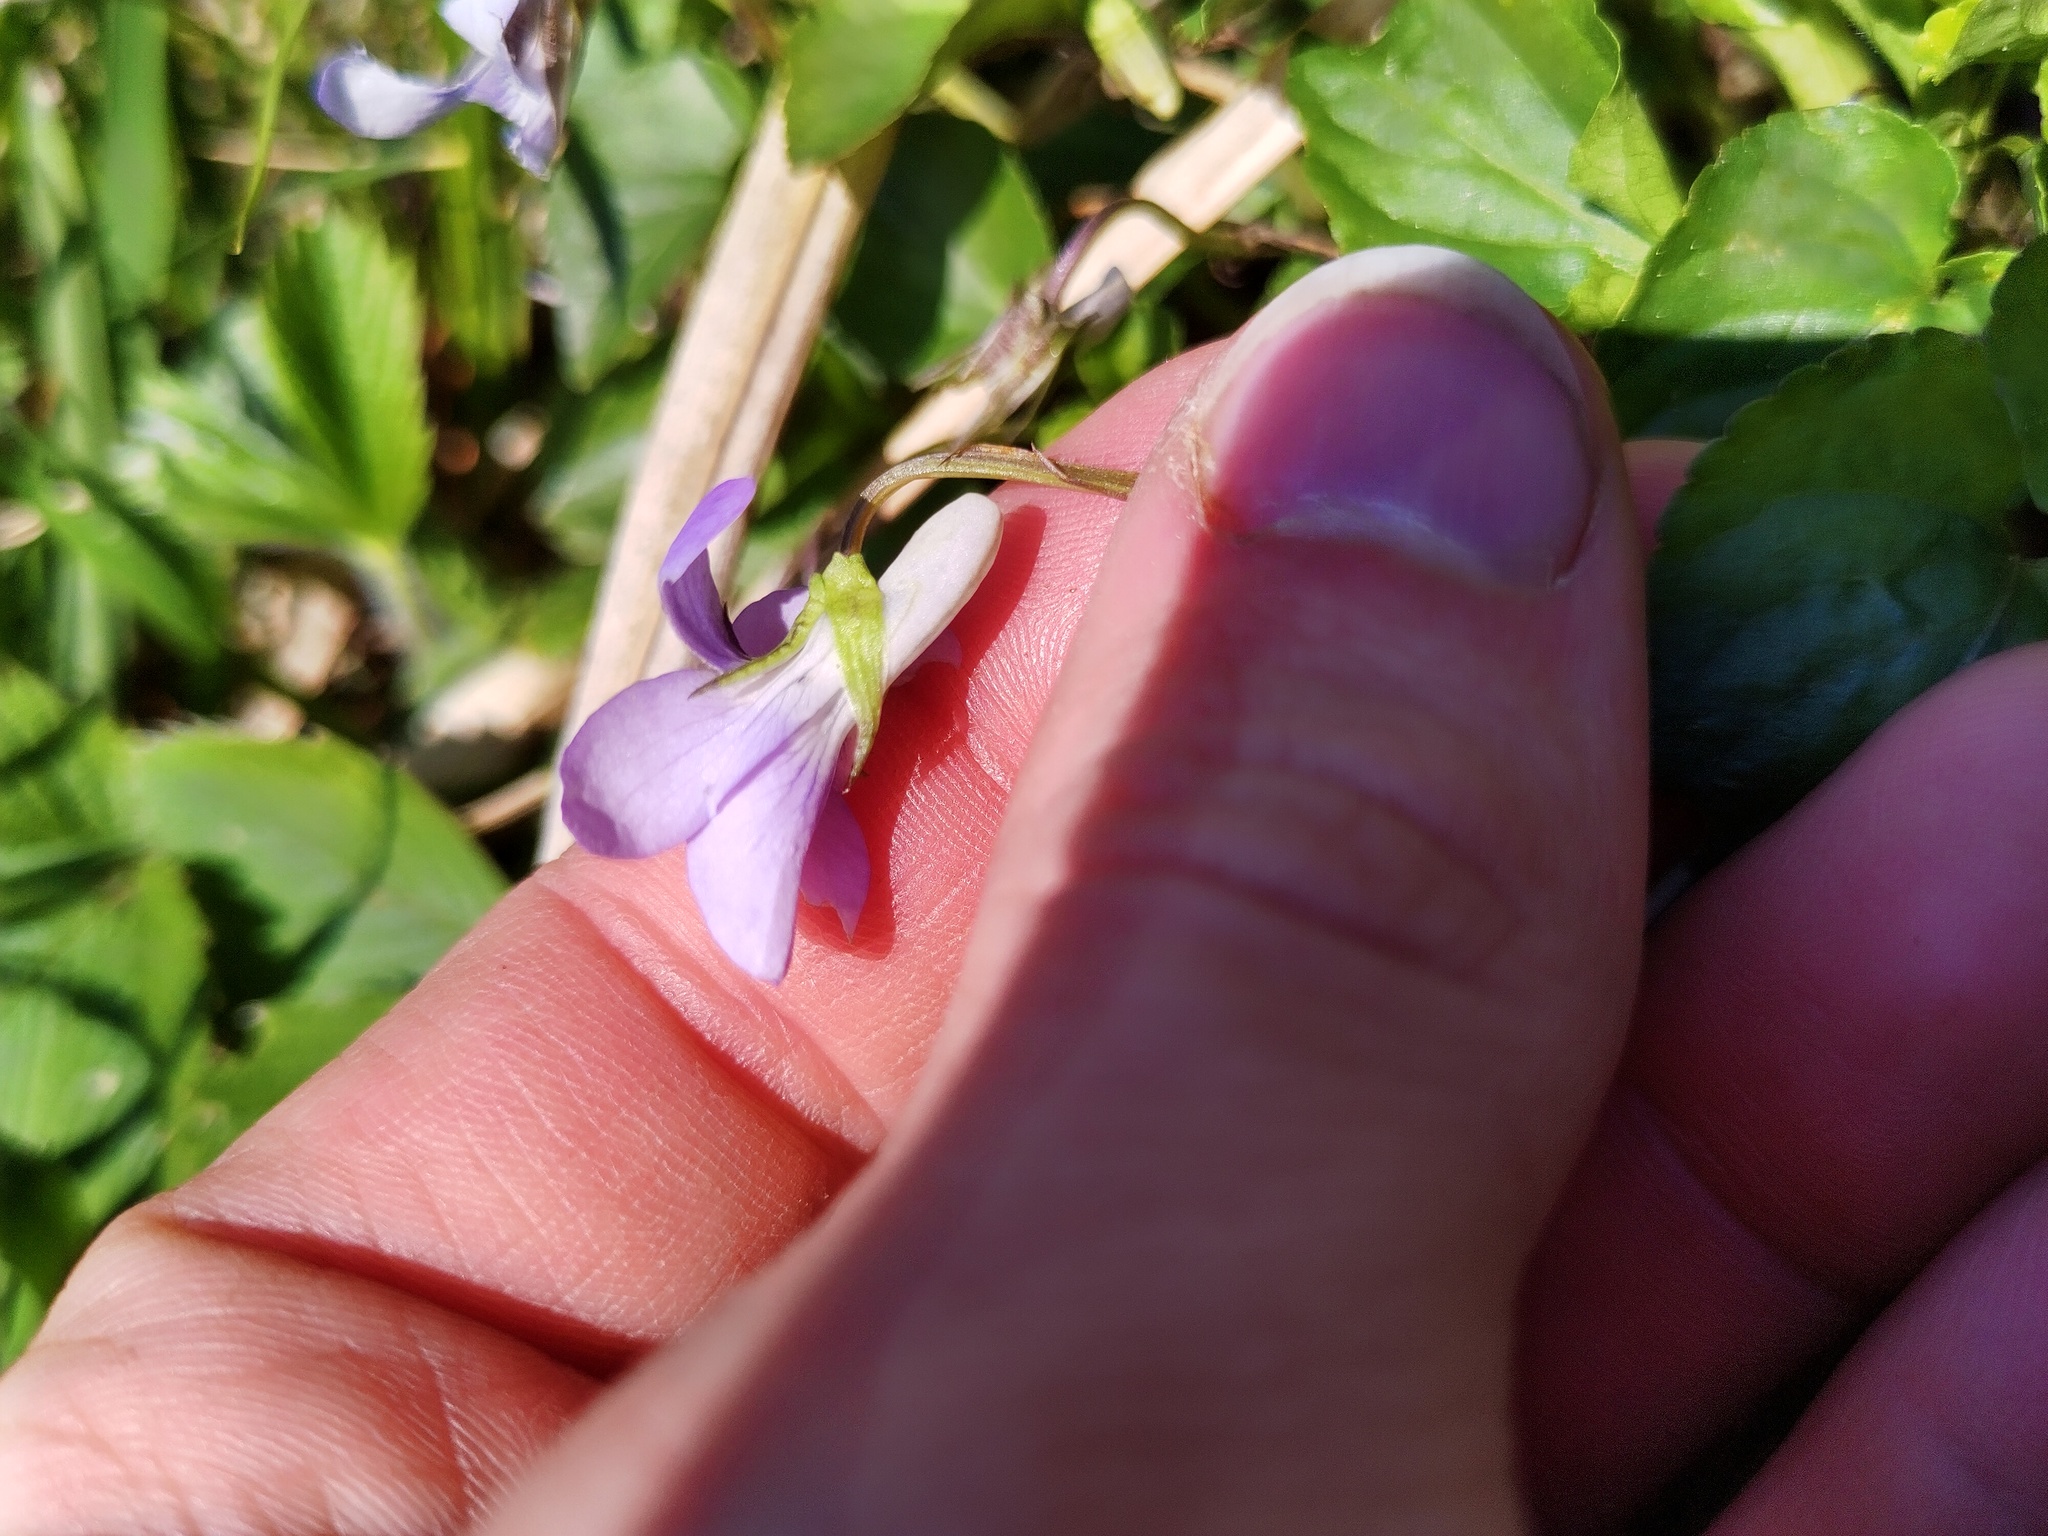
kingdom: Plantae
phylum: Tracheophyta
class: Magnoliopsida
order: Malpighiales
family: Violaceae
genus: Viola
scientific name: Viola riviniana
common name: Common dog-violet
